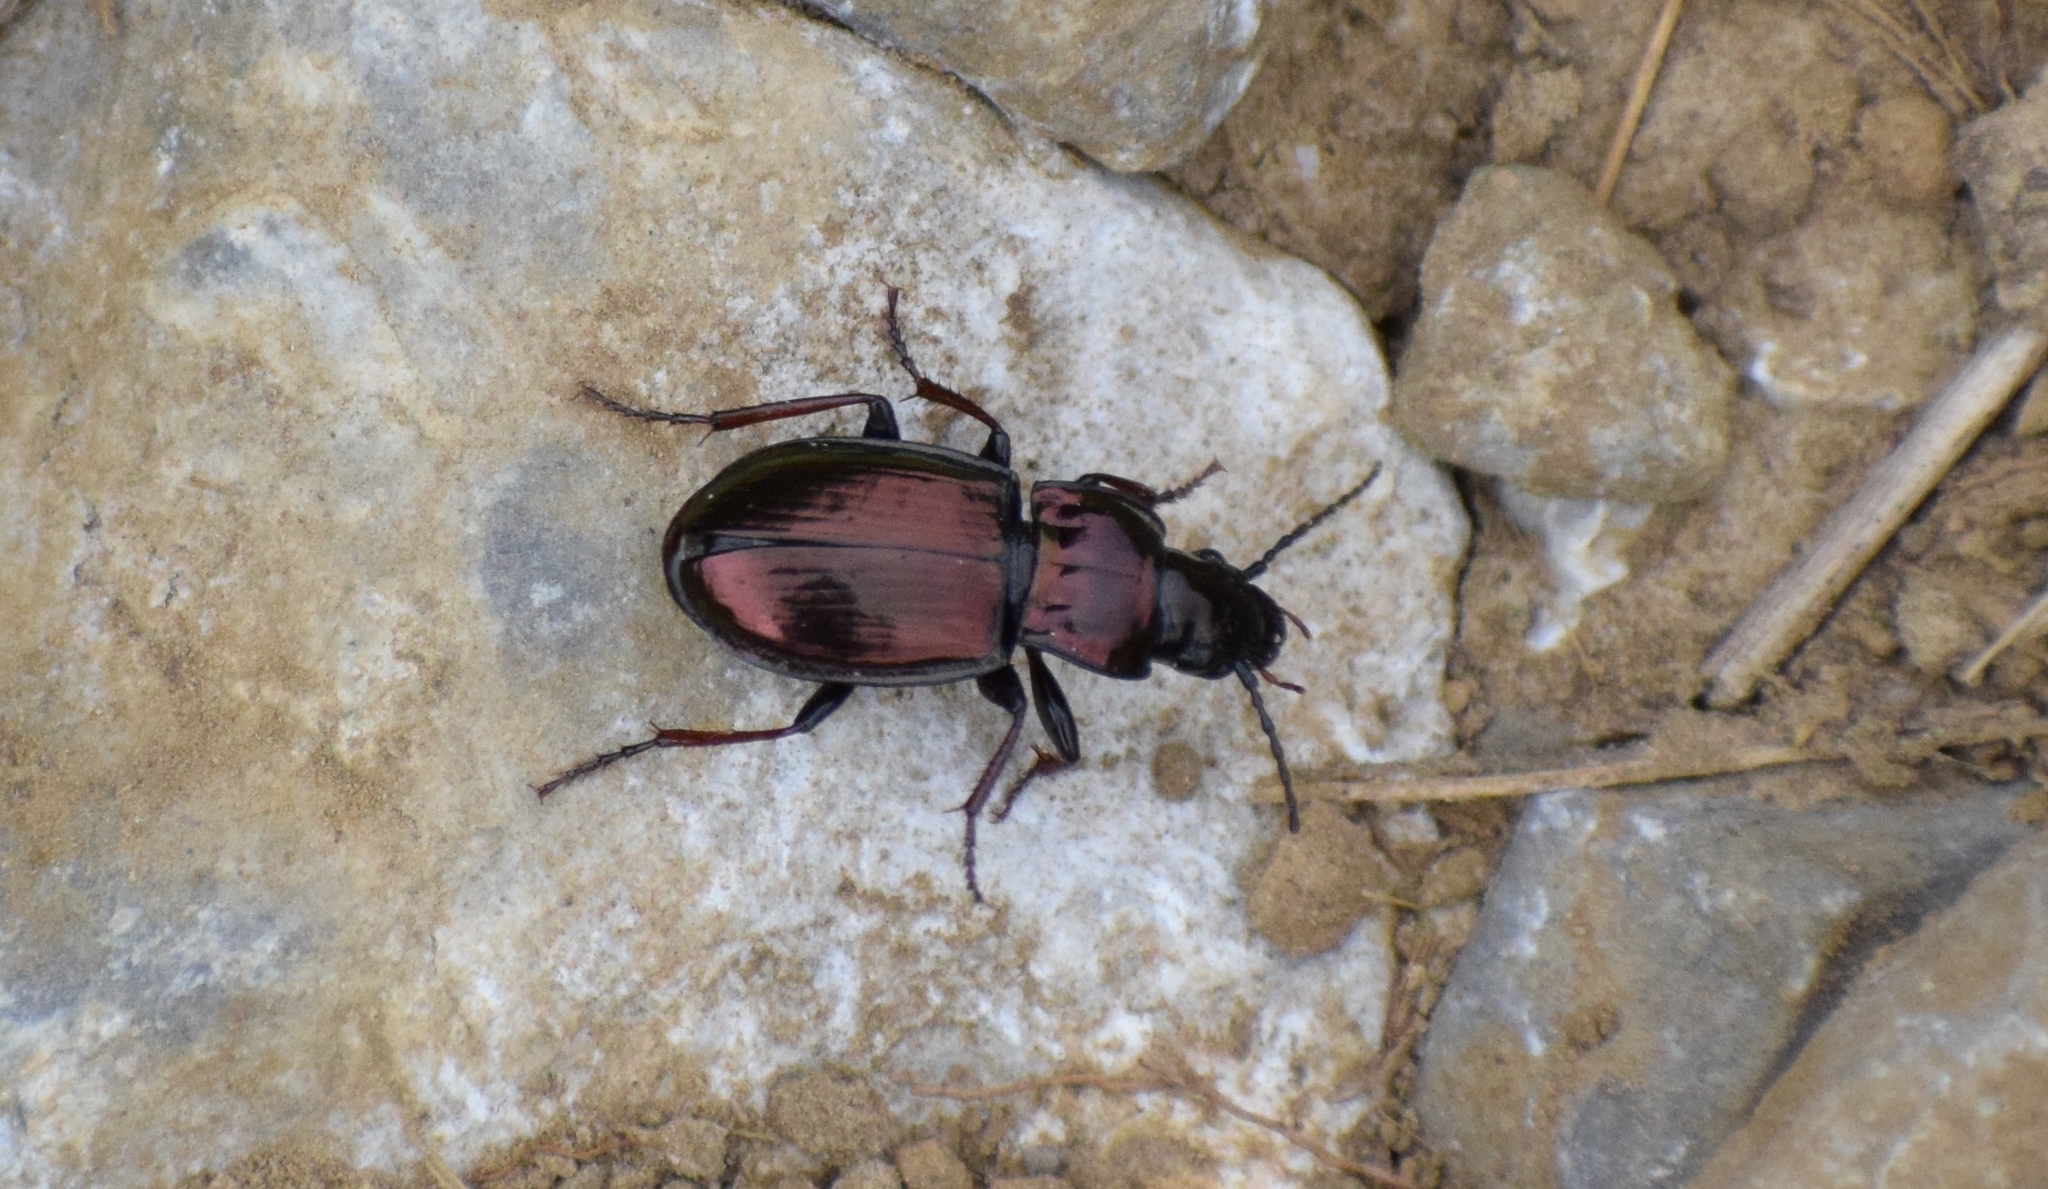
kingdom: Animalia
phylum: Arthropoda
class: Insecta
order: Coleoptera
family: Carabidae
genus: Pterostichus
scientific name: Pterostichus burmeisteri
